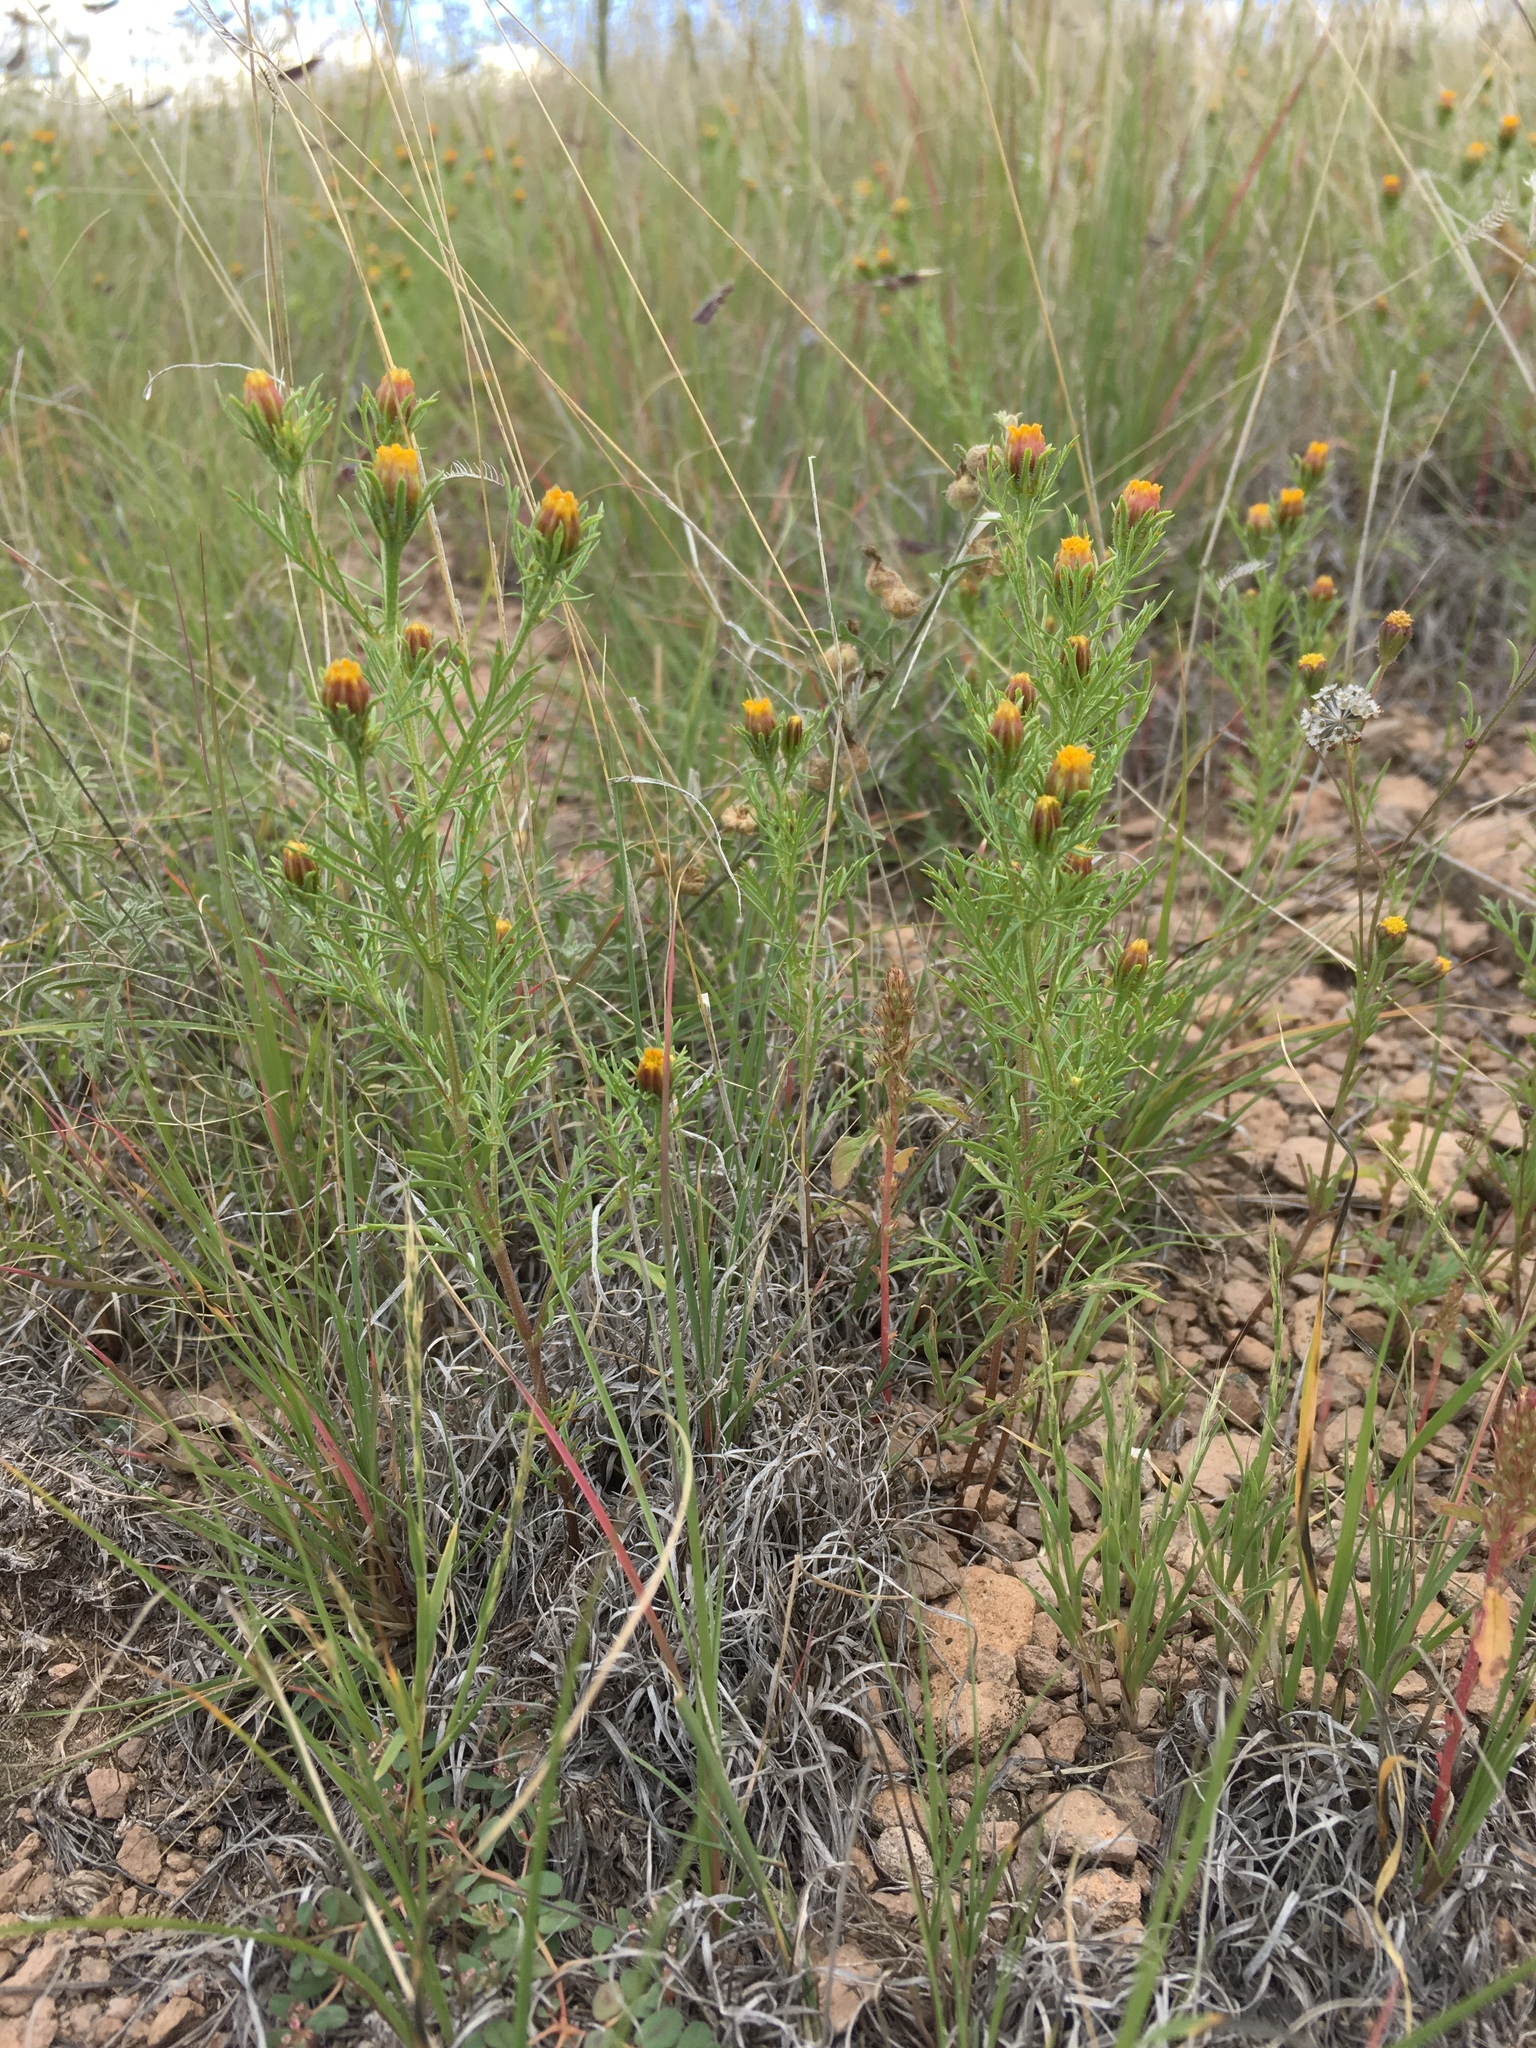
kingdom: Plantae
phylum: Tracheophyta
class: Magnoliopsida
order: Asterales
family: Asteraceae
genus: Dyssodia
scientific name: Dyssodia papposa
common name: Dogweed
